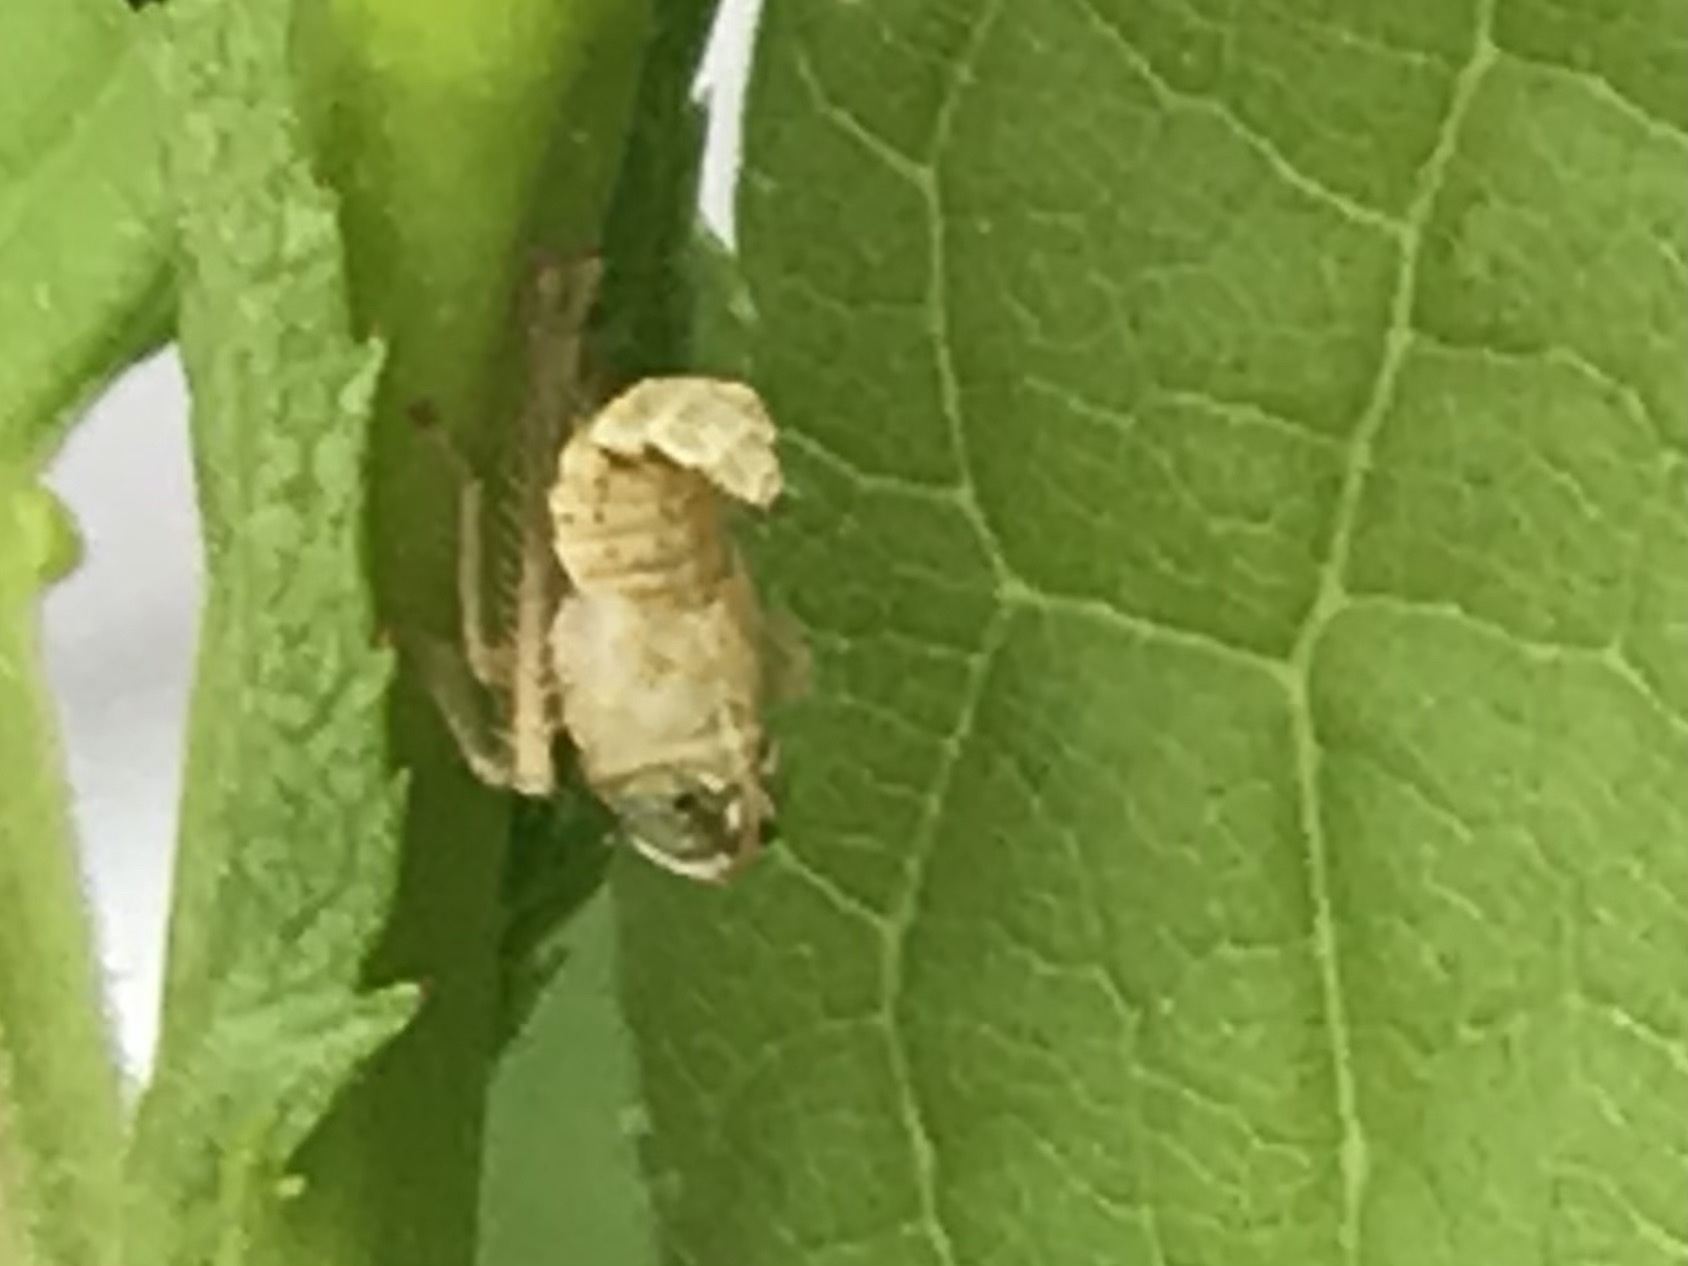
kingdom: Animalia
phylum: Arthropoda
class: Insecta
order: Hemiptera
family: Cicadellidae
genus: Jikradia
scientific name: Jikradia olitoria
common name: Coppery leafhopper
